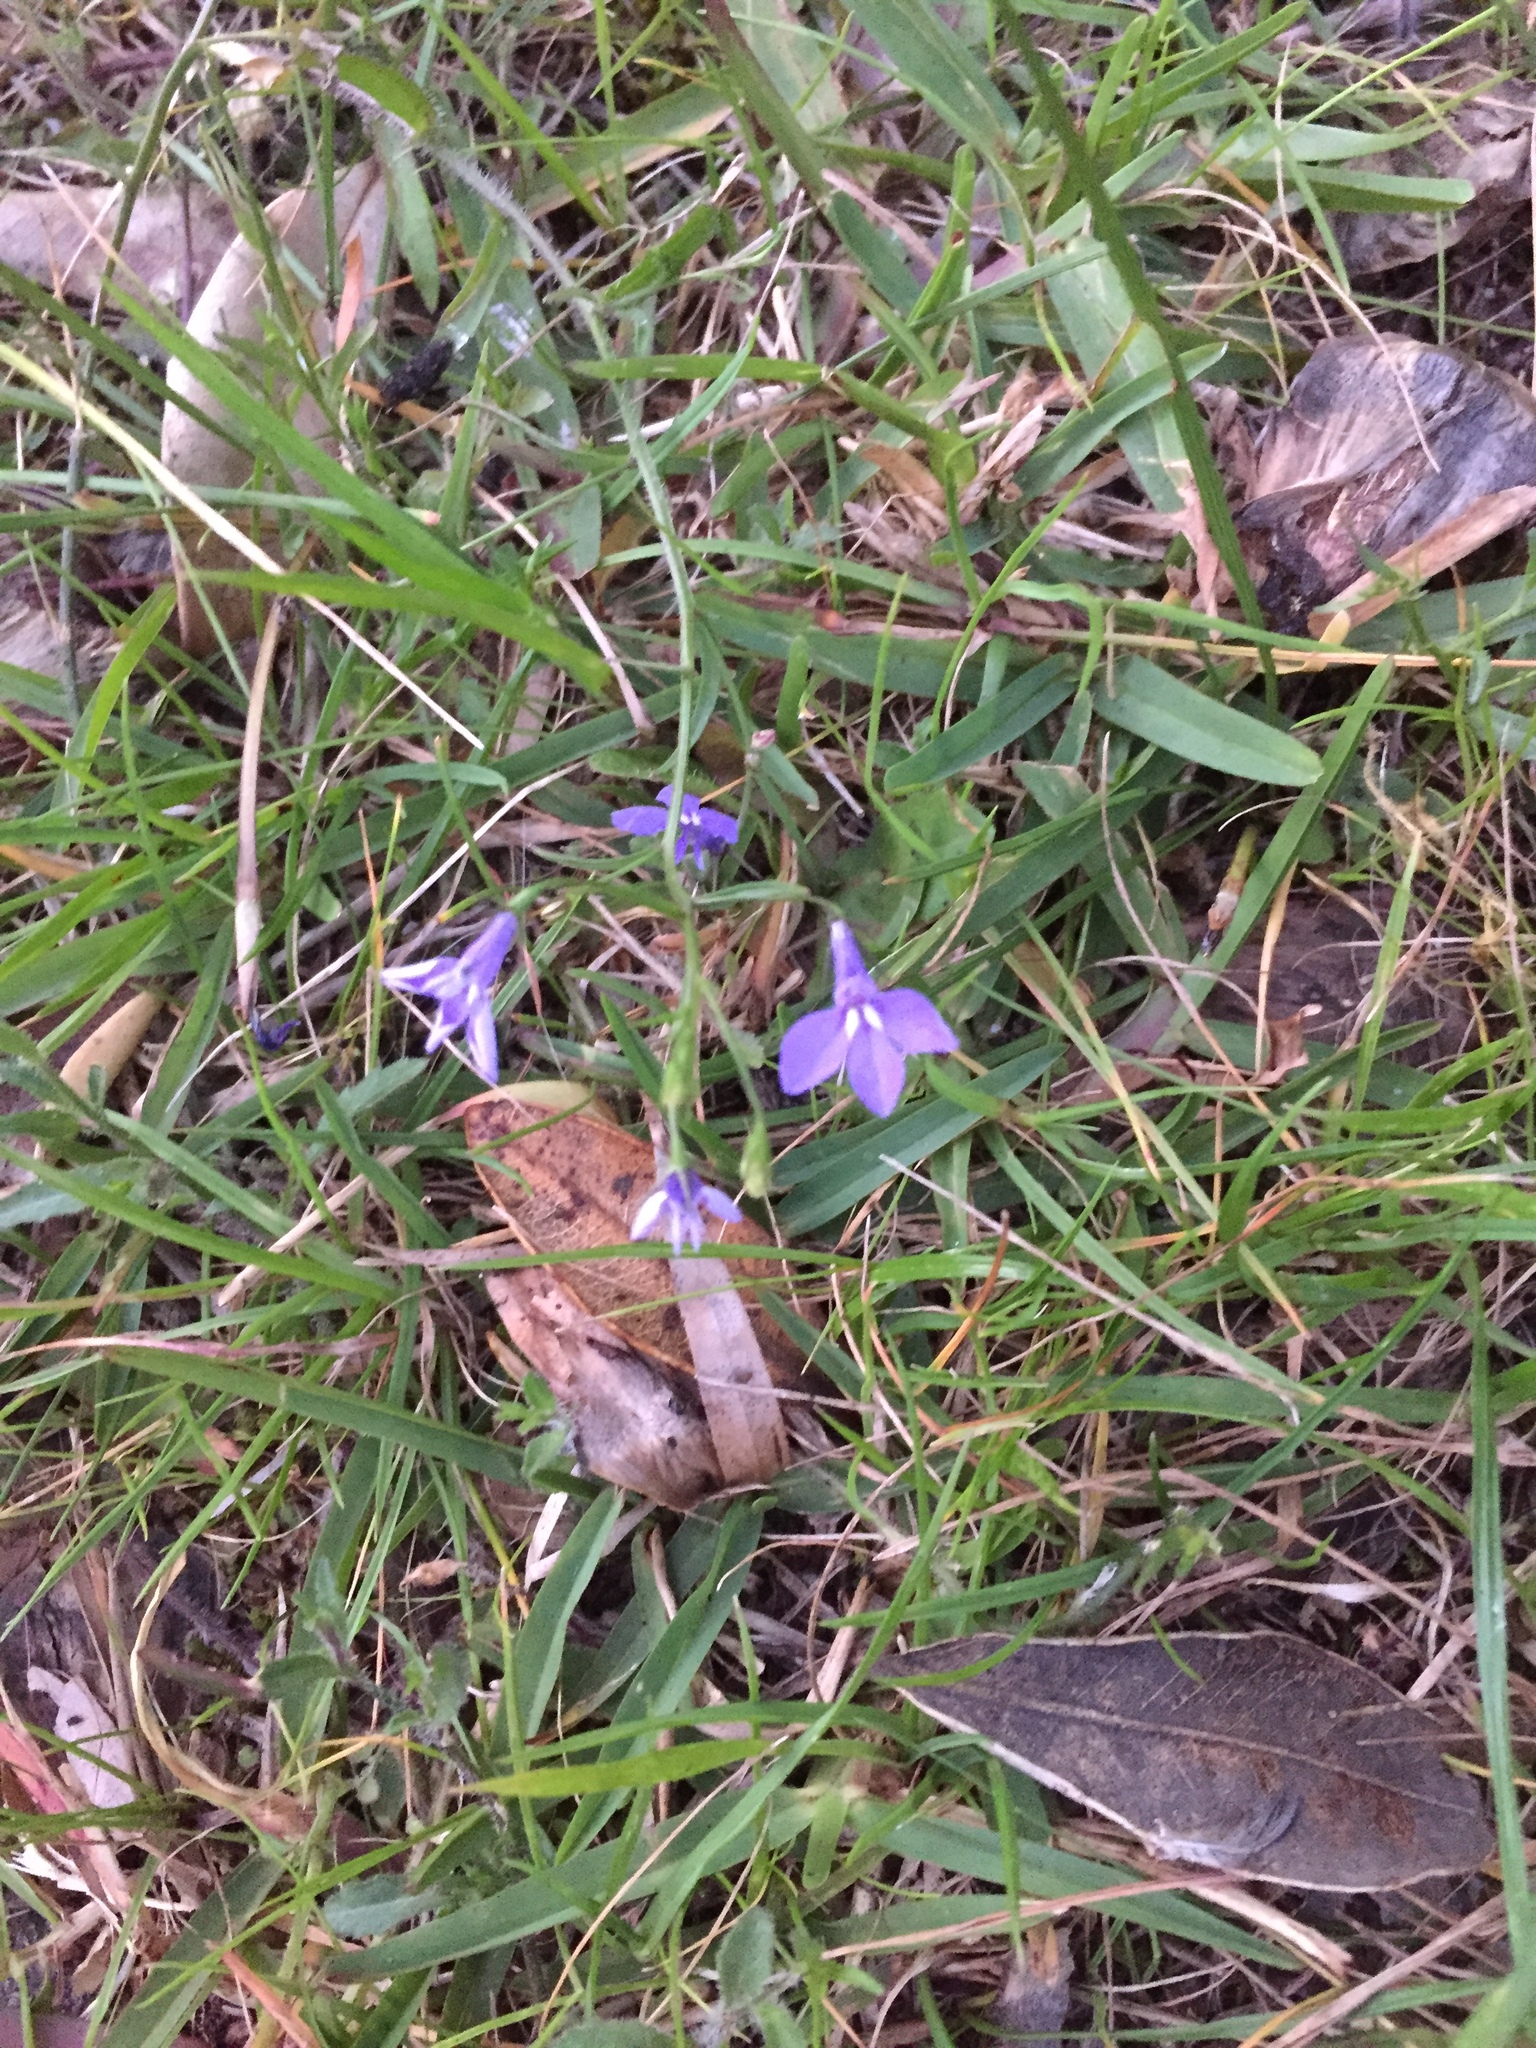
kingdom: Plantae
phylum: Tracheophyta
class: Magnoliopsida
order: Asterales
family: Campanulaceae
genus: Lobelia
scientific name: Lobelia erinus
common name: Edging lobelia
